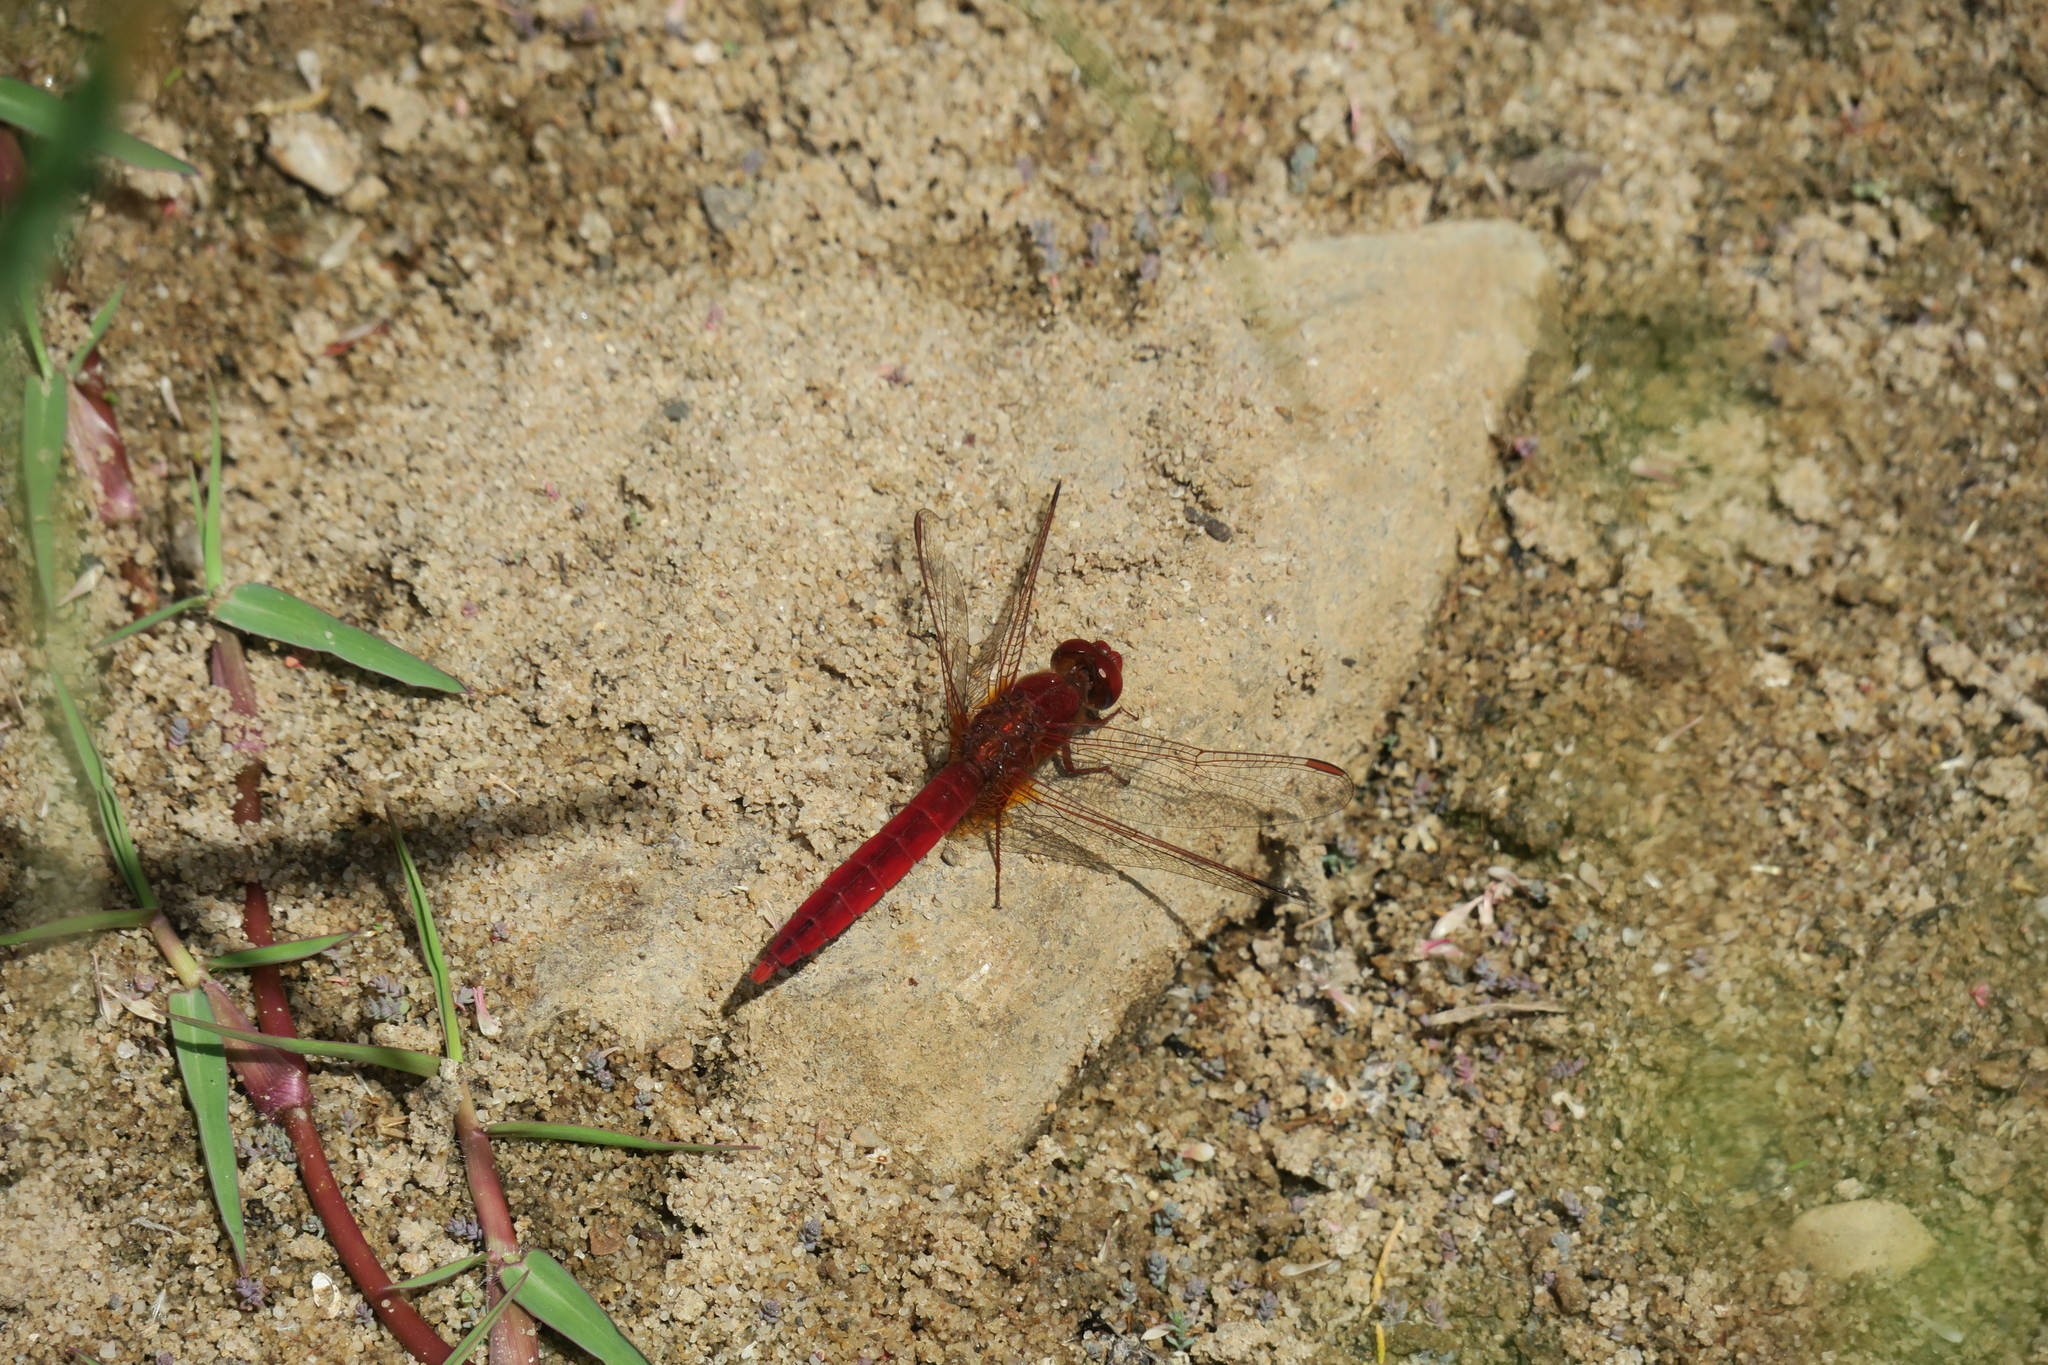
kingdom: Animalia
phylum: Arthropoda
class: Insecta
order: Odonata
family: Libellulidae
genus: Crocothemis
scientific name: Crocothemis erythraea
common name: Scarlet dragonfly
